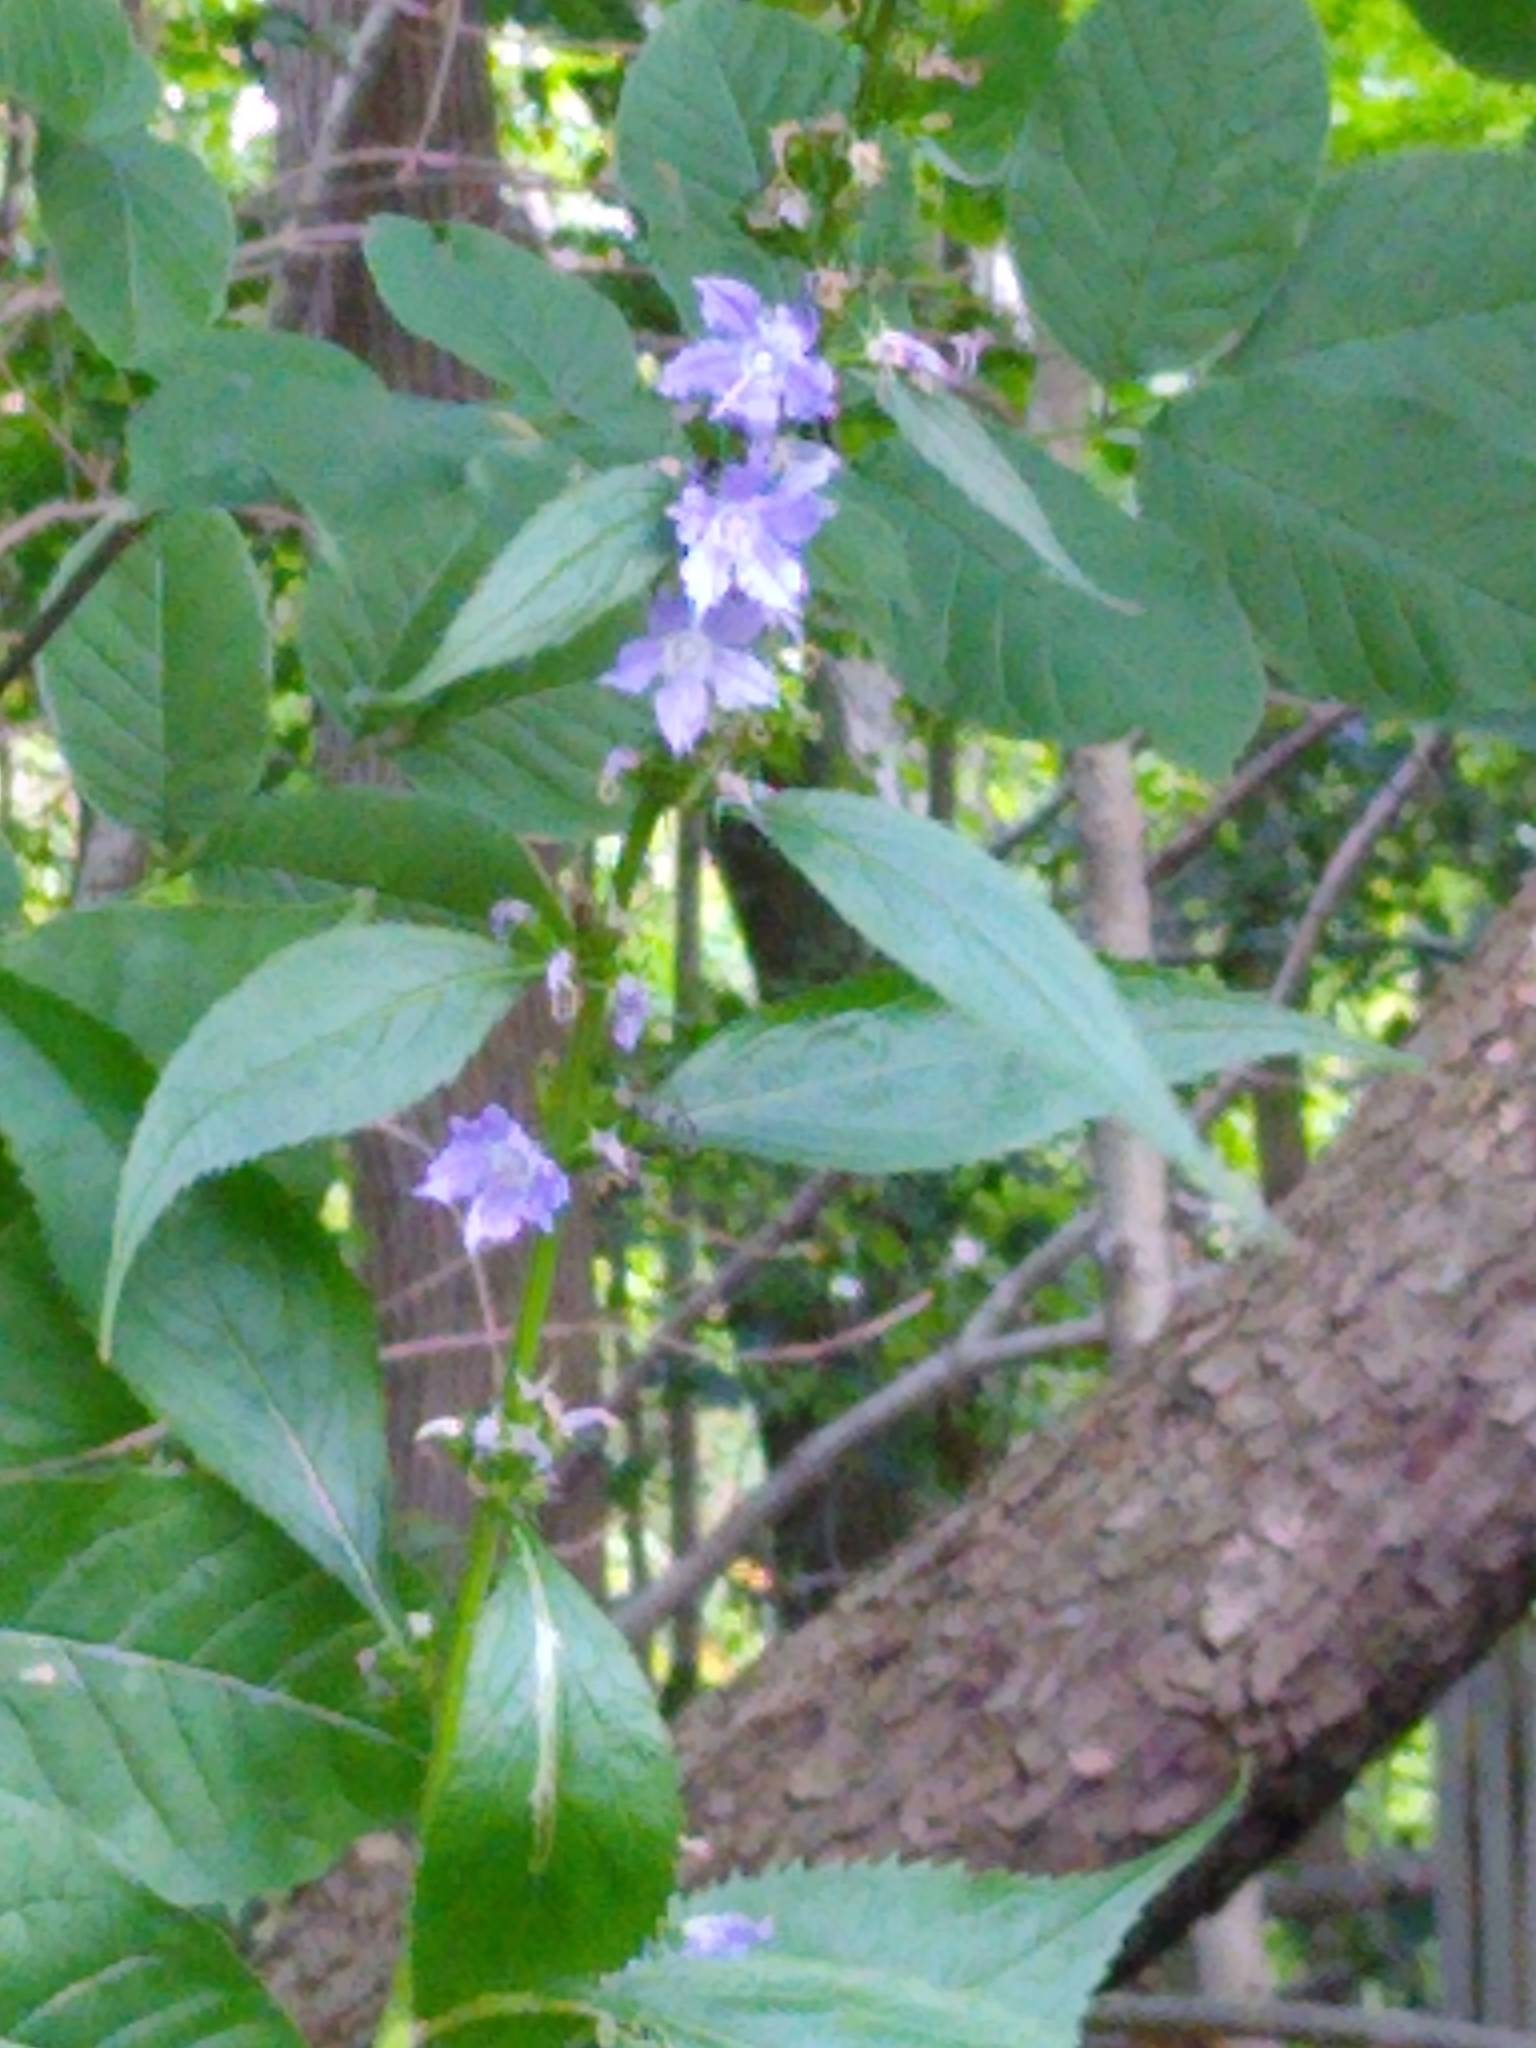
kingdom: Plantae
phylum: Tracheophyta
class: Magnoliopsida
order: Asterales
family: Campanulaceae
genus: Campanulastrum
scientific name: Campanulastrum americanum
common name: American bellflower
